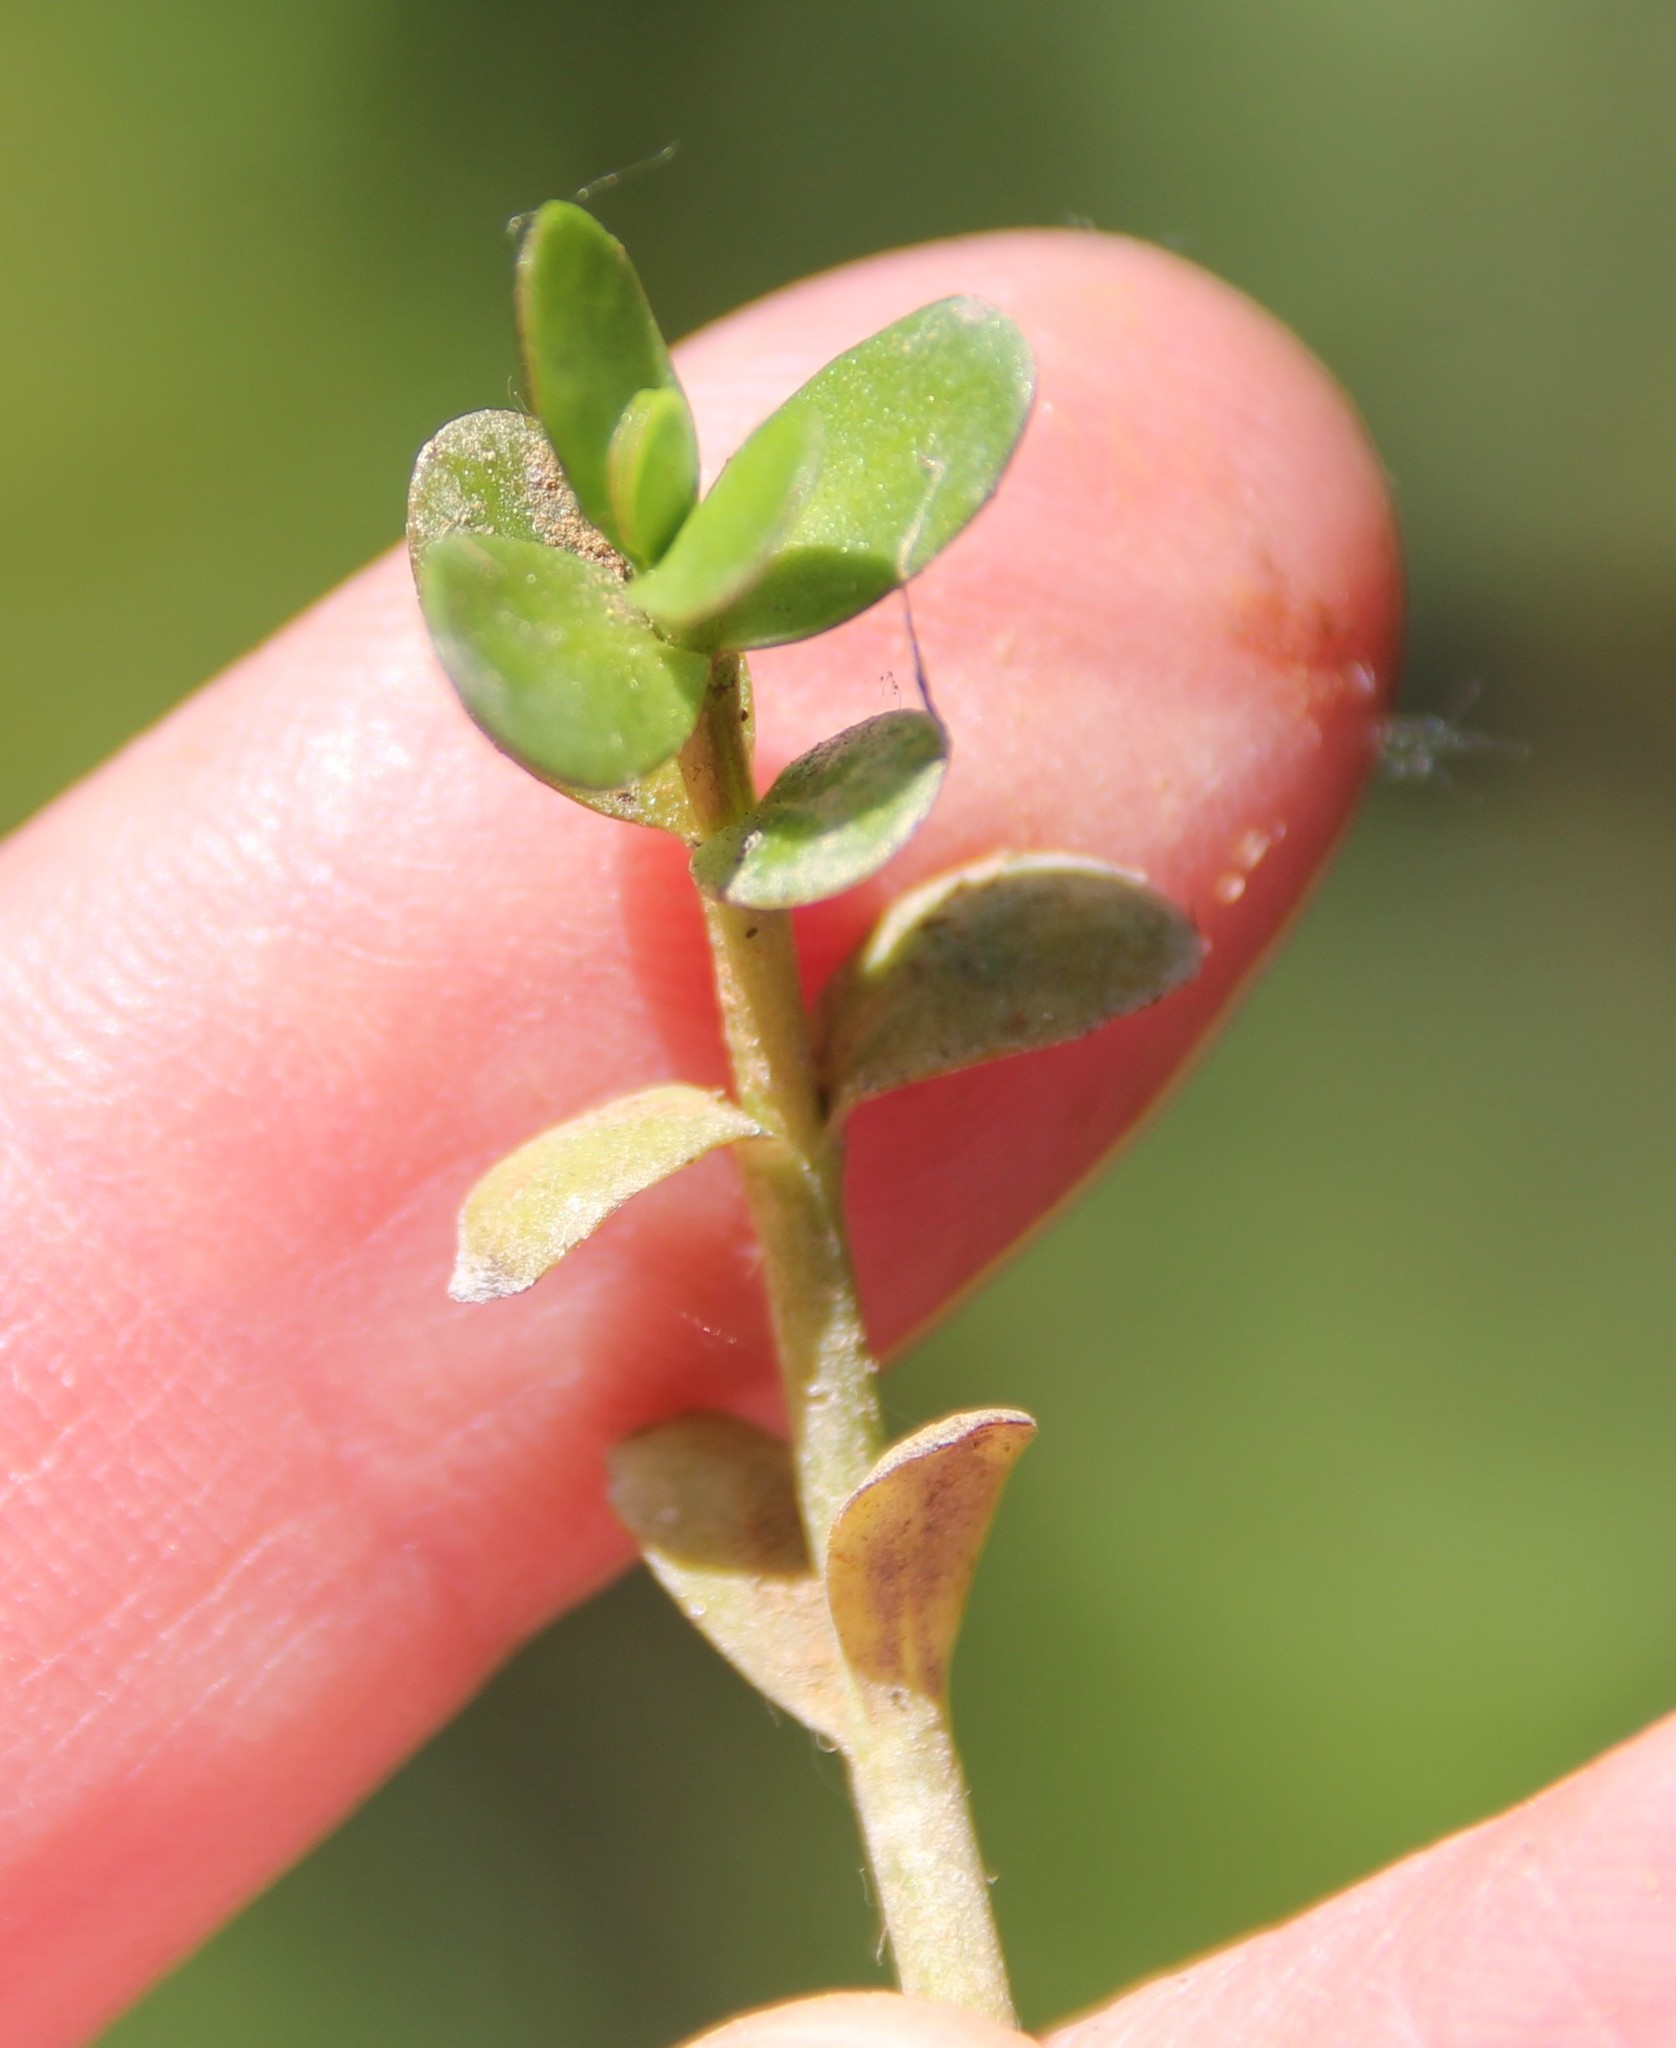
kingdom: Plantae
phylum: Tracheophyta
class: Magnoliopsida
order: Lamiales
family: Plantaginaceae
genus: Bacopa
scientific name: Bacopa monnieri
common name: Indian-pennywort
